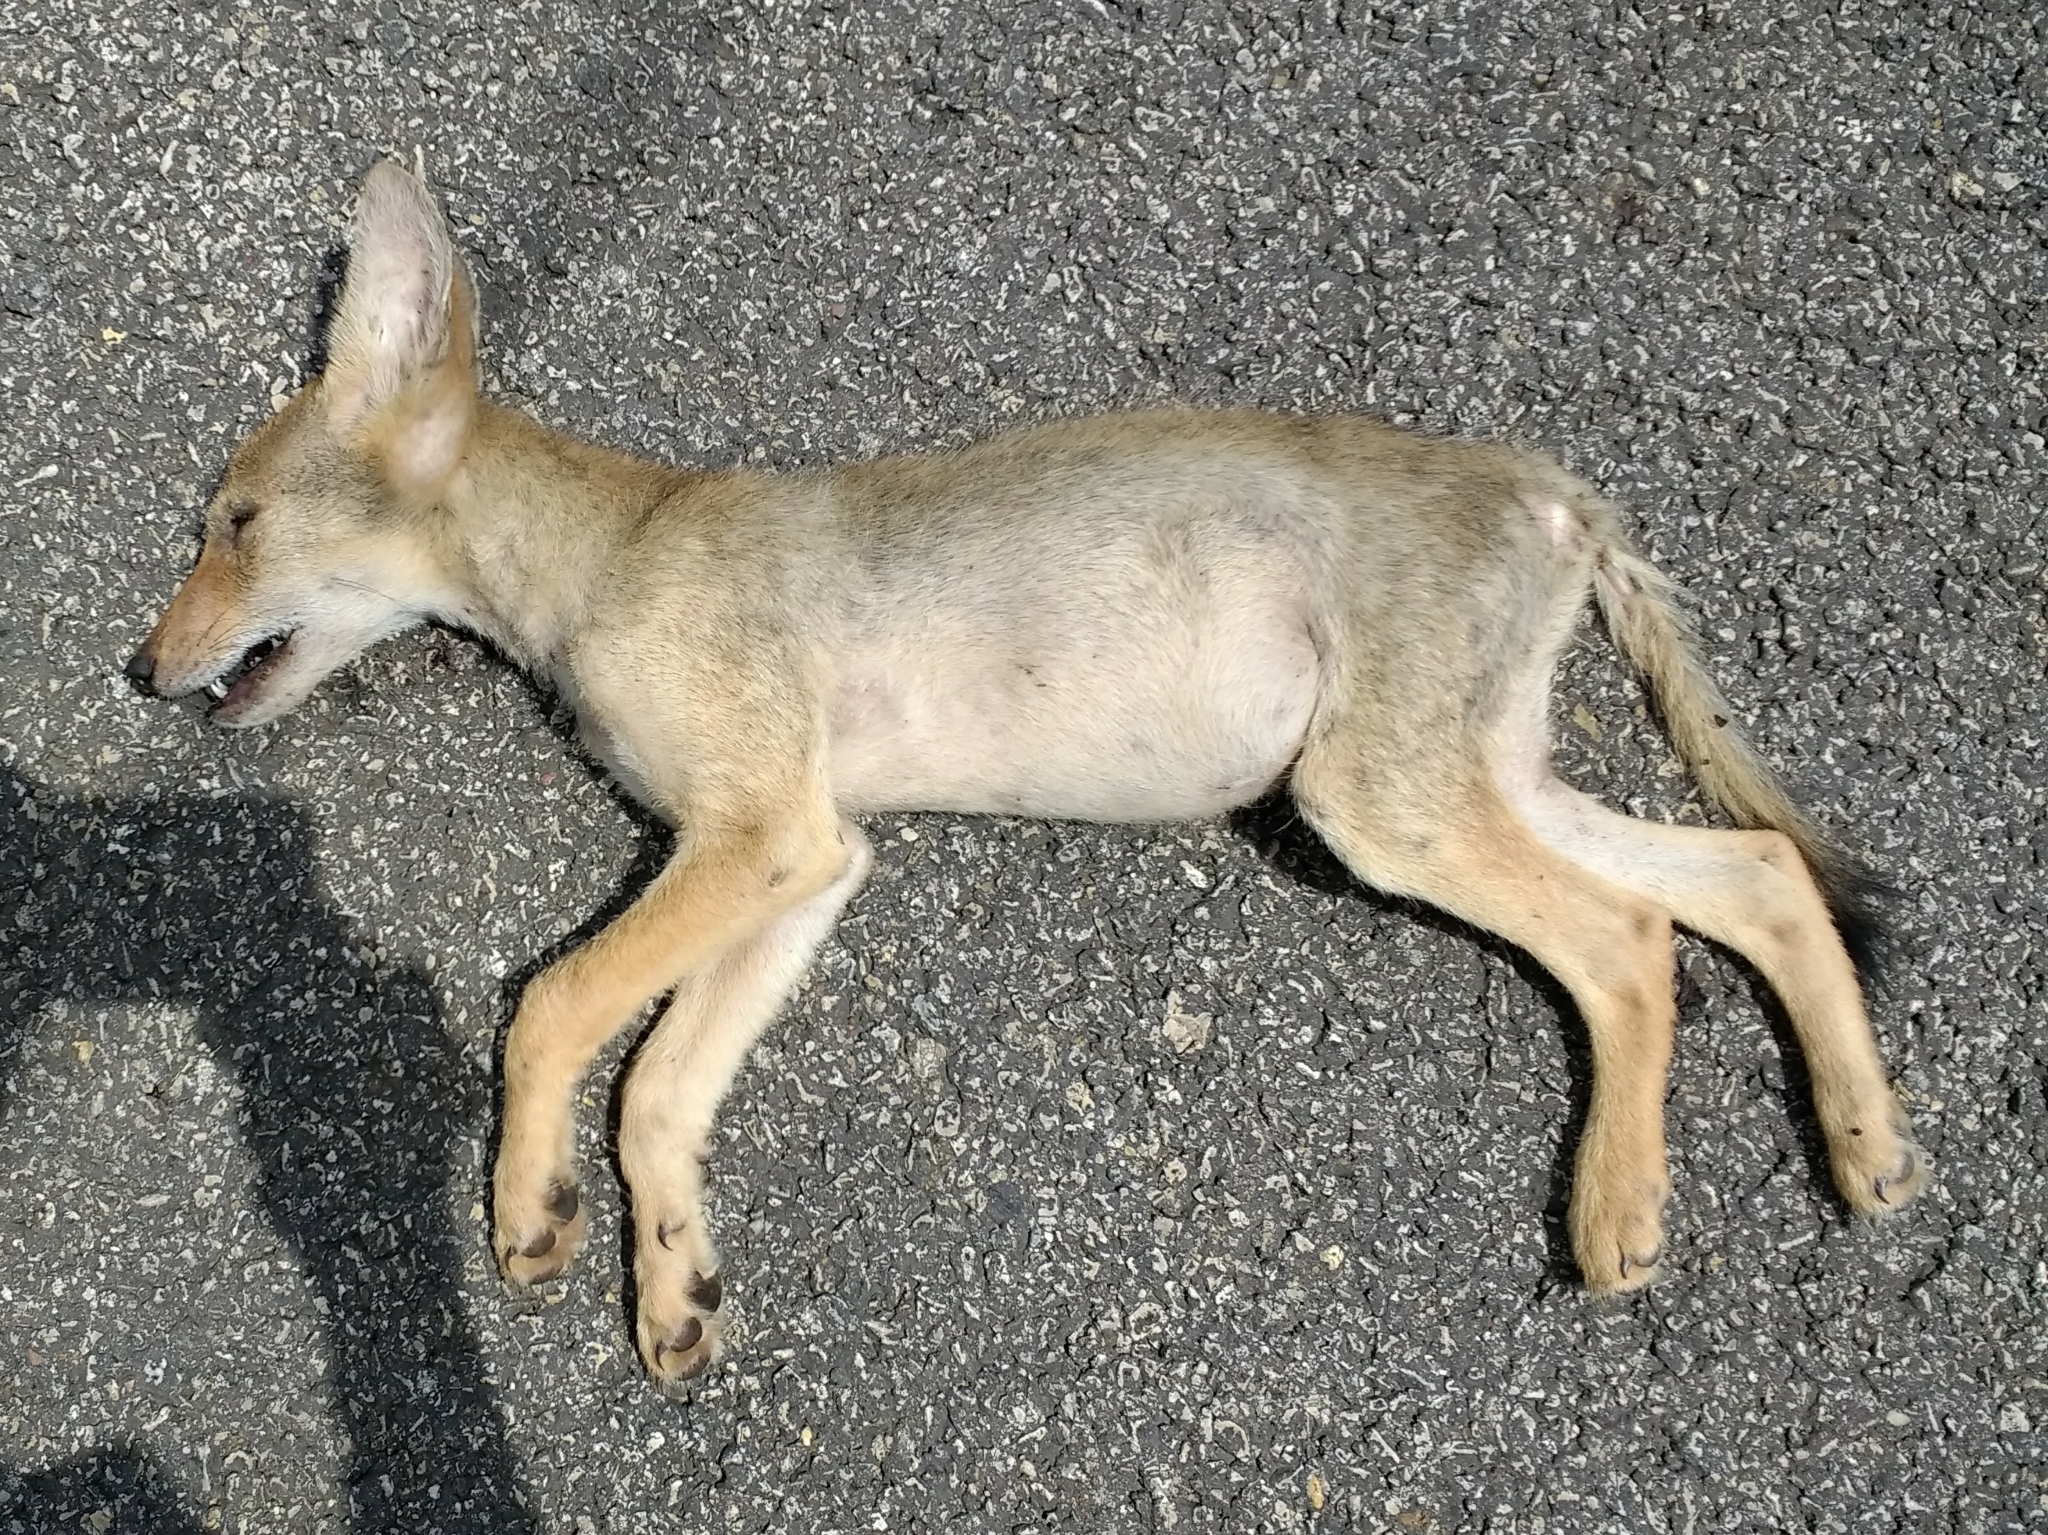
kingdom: Animalia
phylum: Chordata
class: Mammalia
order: Carnivora
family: Canidae
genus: Canis
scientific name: Canis latrans
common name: Coyote
